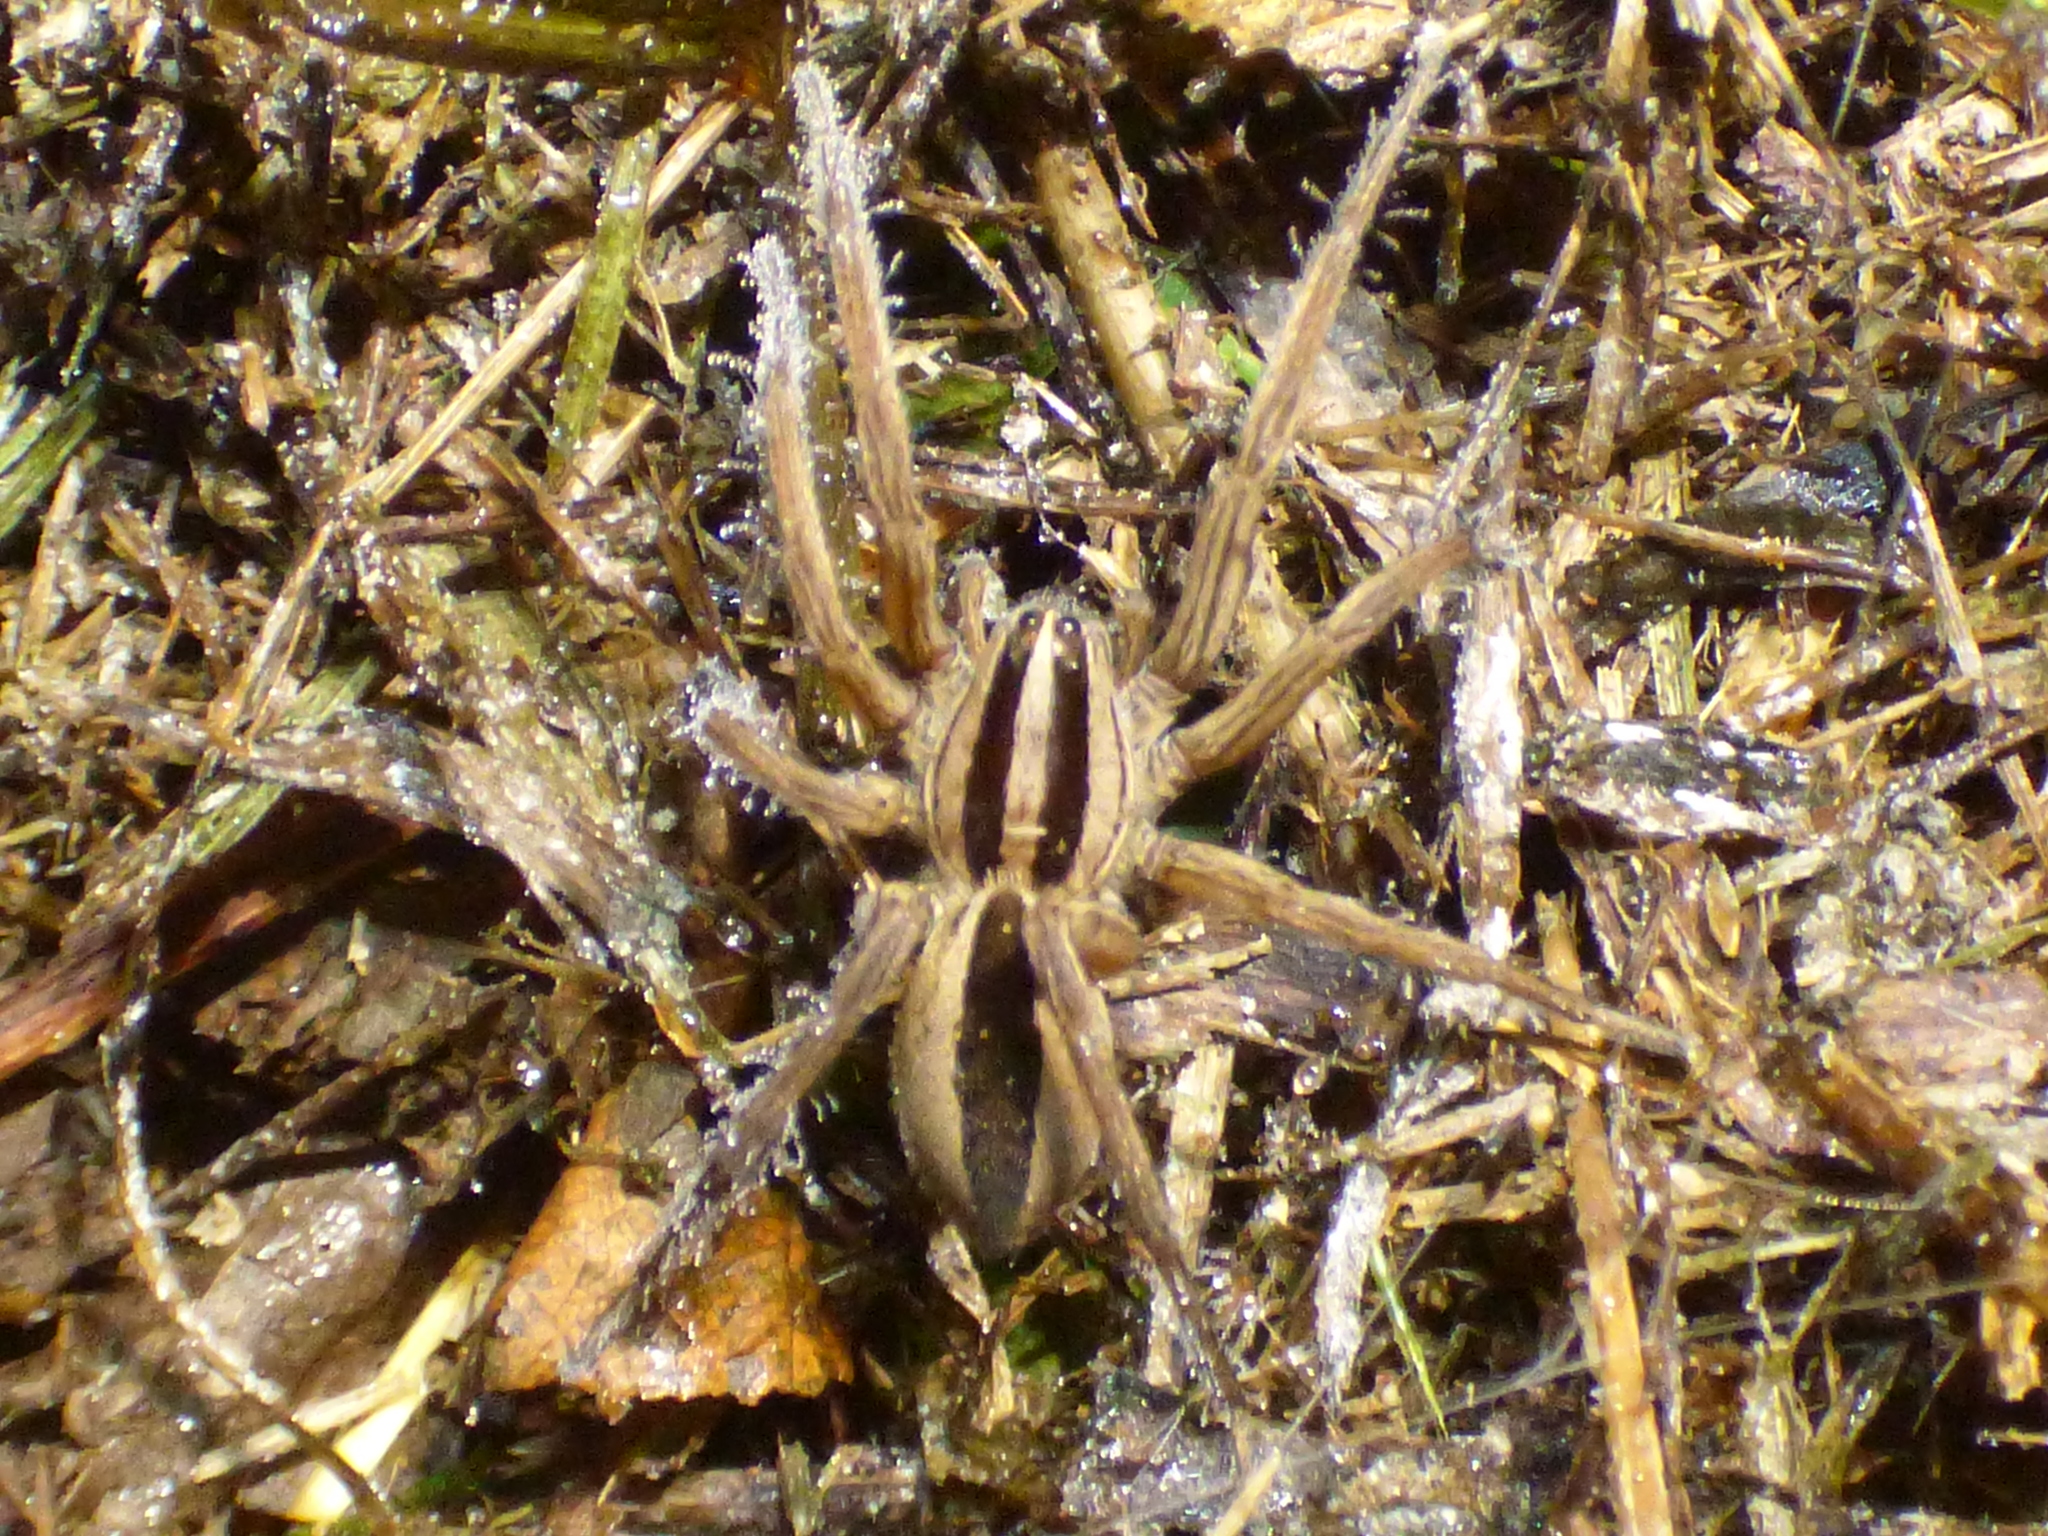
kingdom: Animalia
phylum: Arthropoda
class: Arachnida
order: Araneae
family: Lycosidae
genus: Rabidosa
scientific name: Rabidosa punctulata
